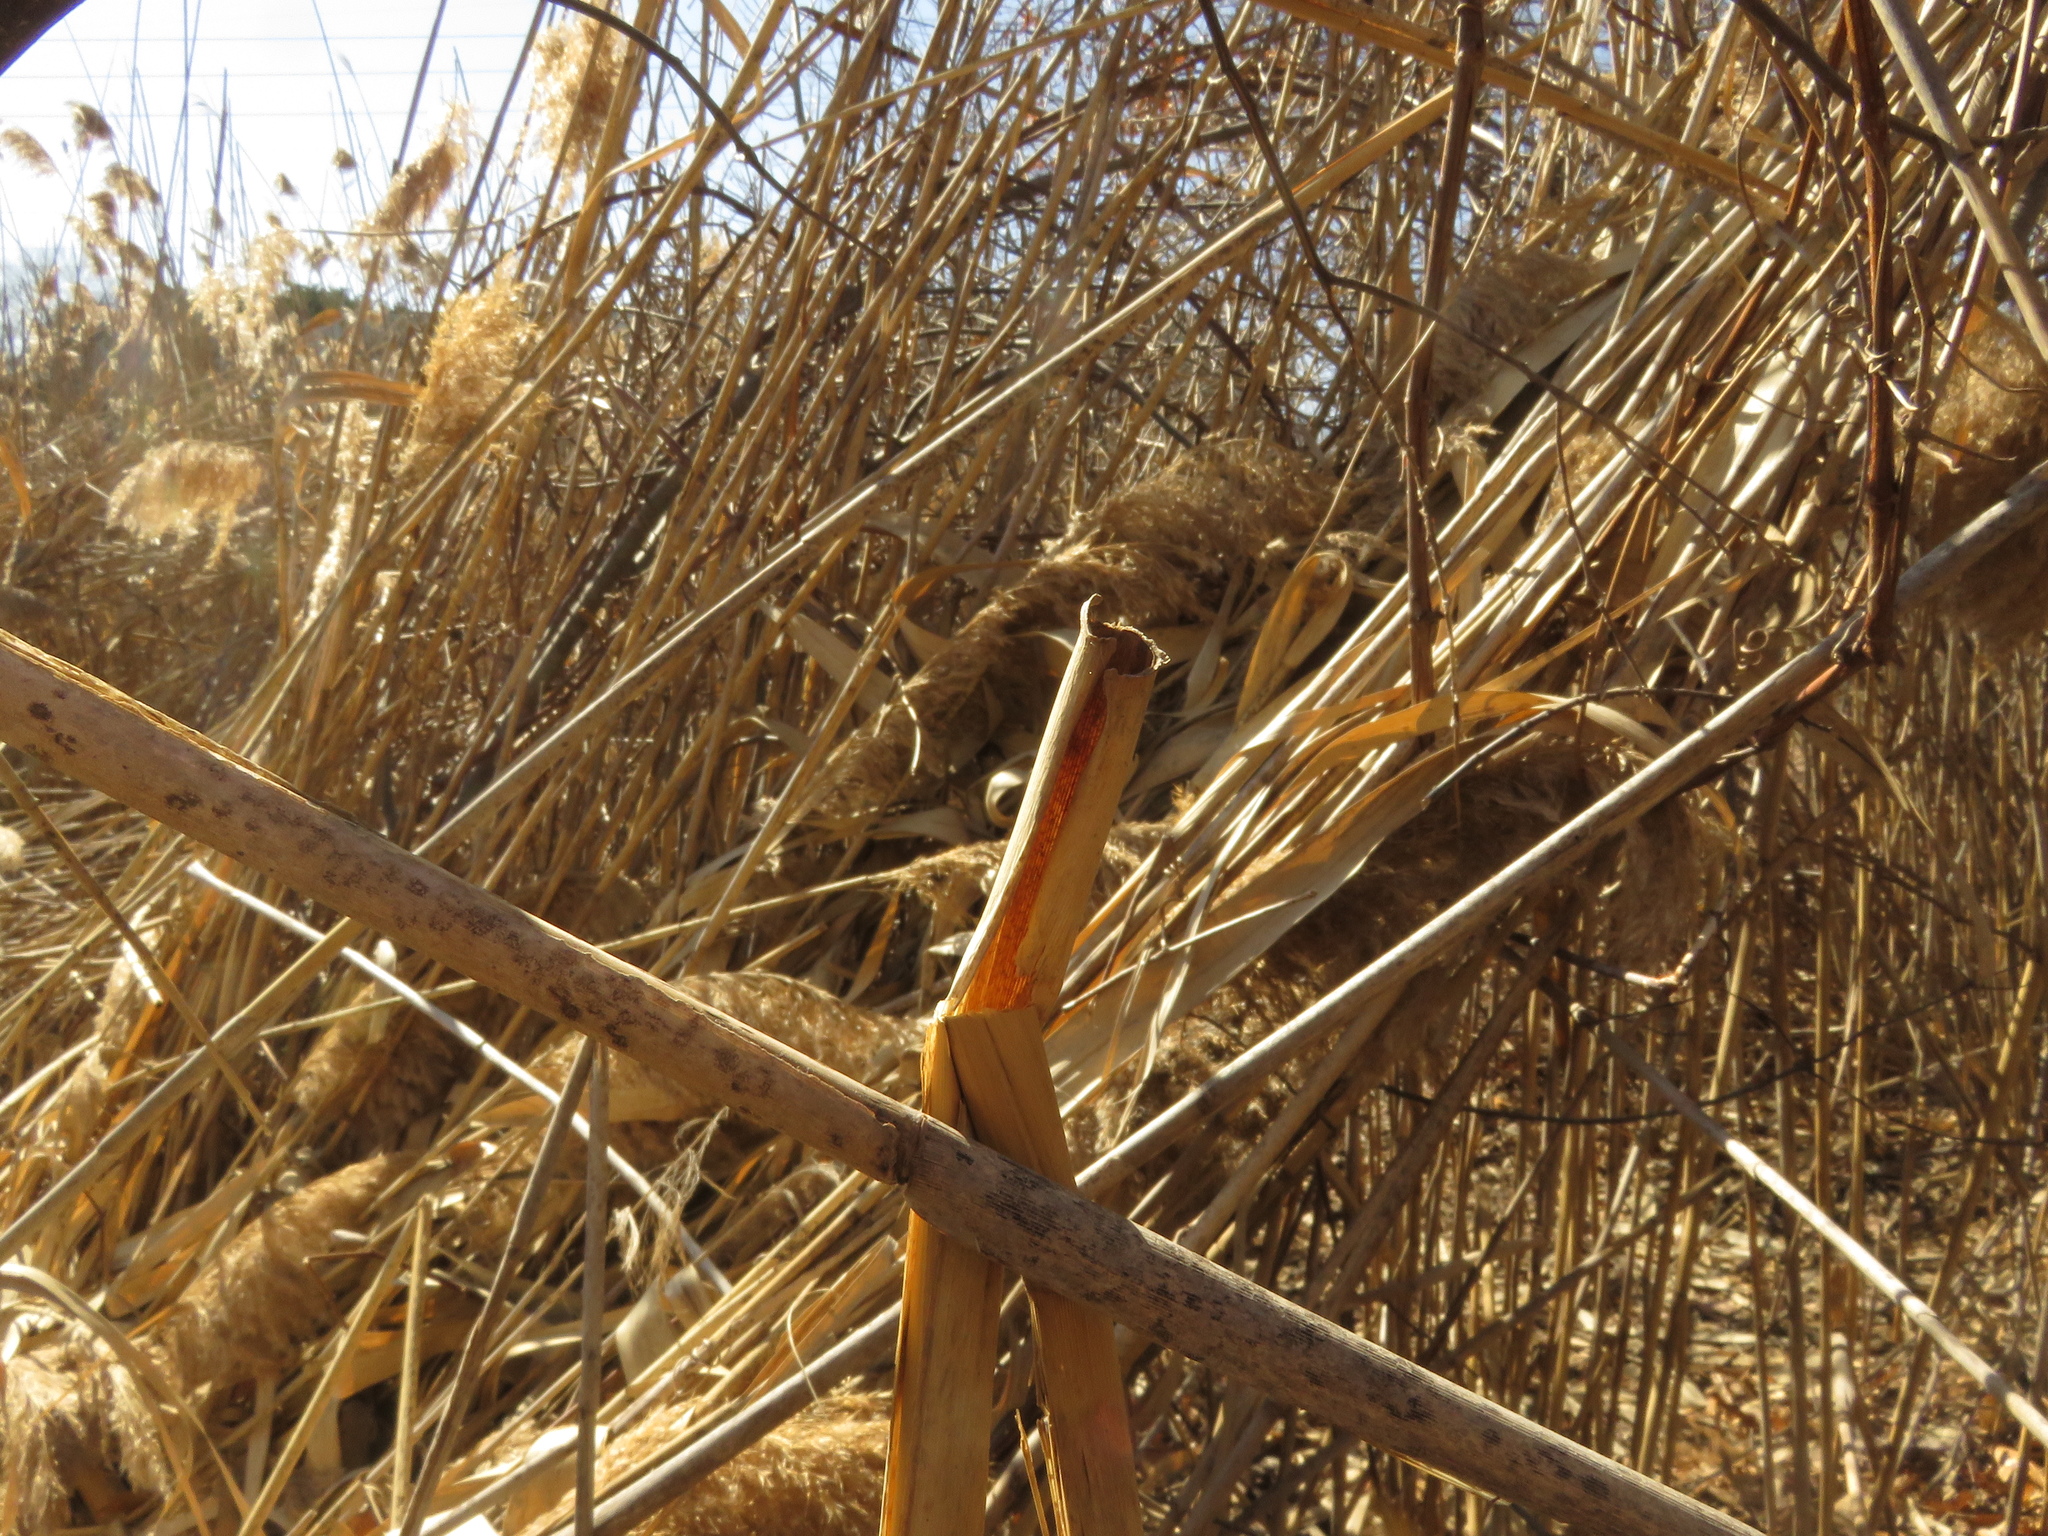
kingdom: Plantae
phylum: Tracheophyta
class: Liliopsida
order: Poales
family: Poaceae
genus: Phragmites
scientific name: Phragmites australis
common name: Common reed
